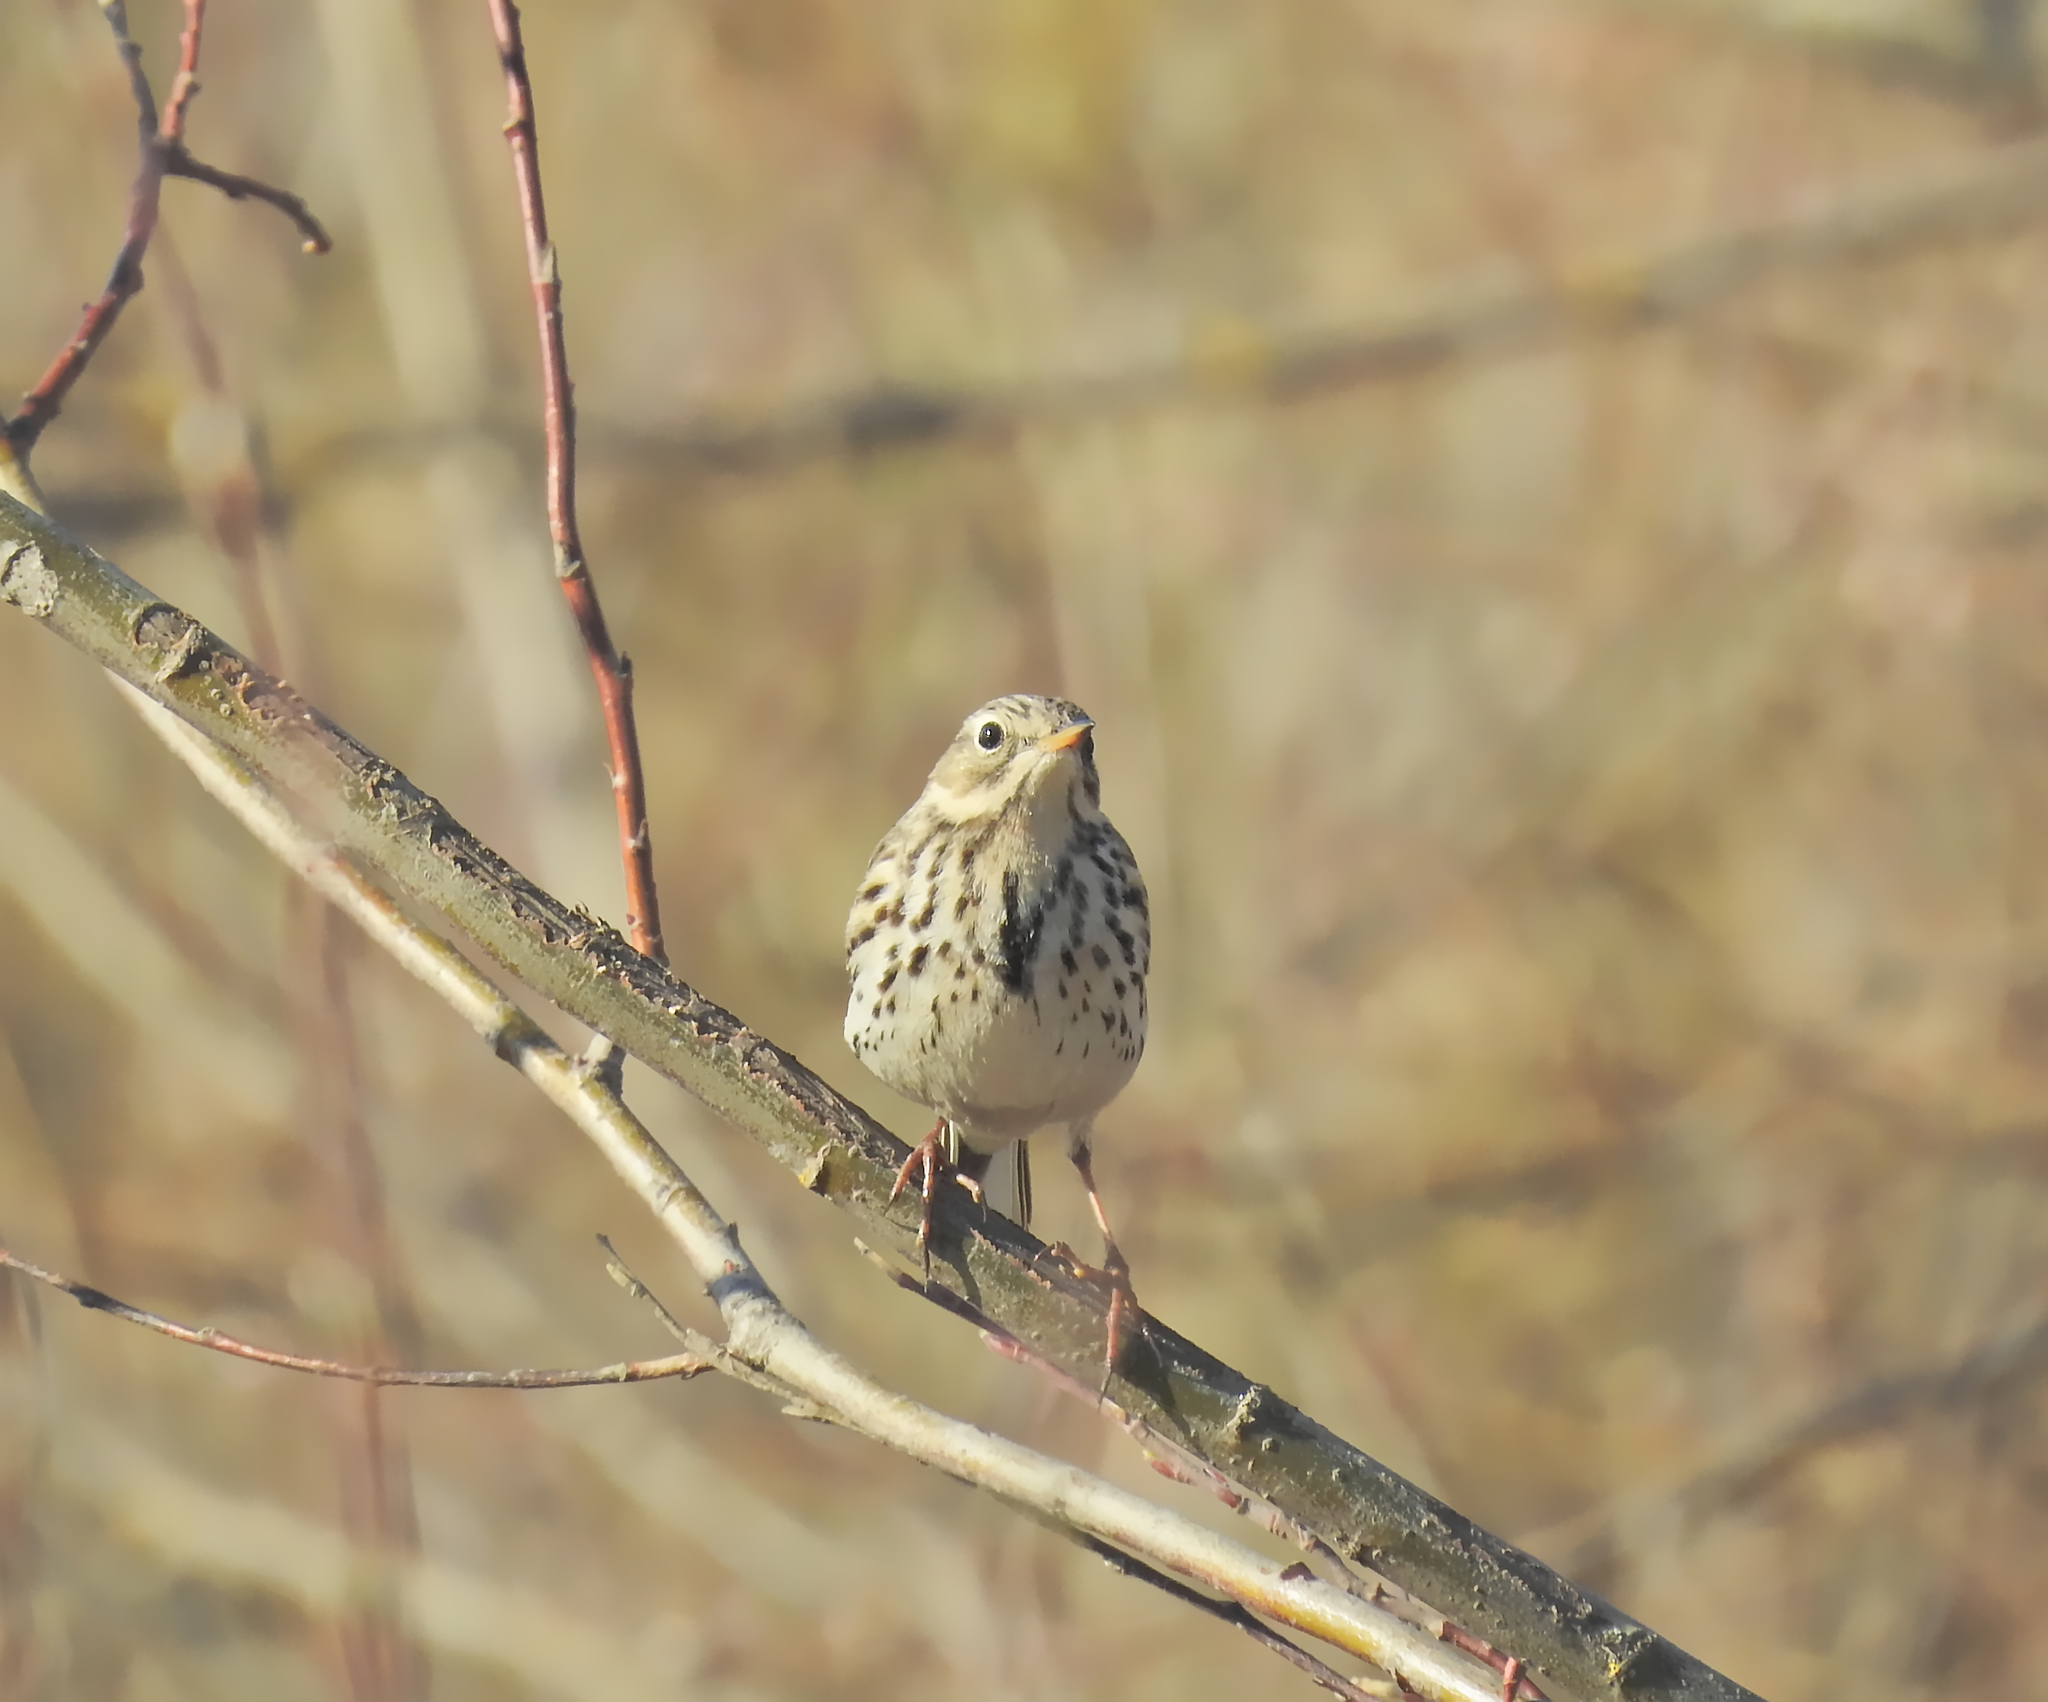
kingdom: Animalia
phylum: Chordata
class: Aves
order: Passeriformes
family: Motacillidae
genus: Anthus
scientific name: Anthus pratensis
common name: Meadow pipit
